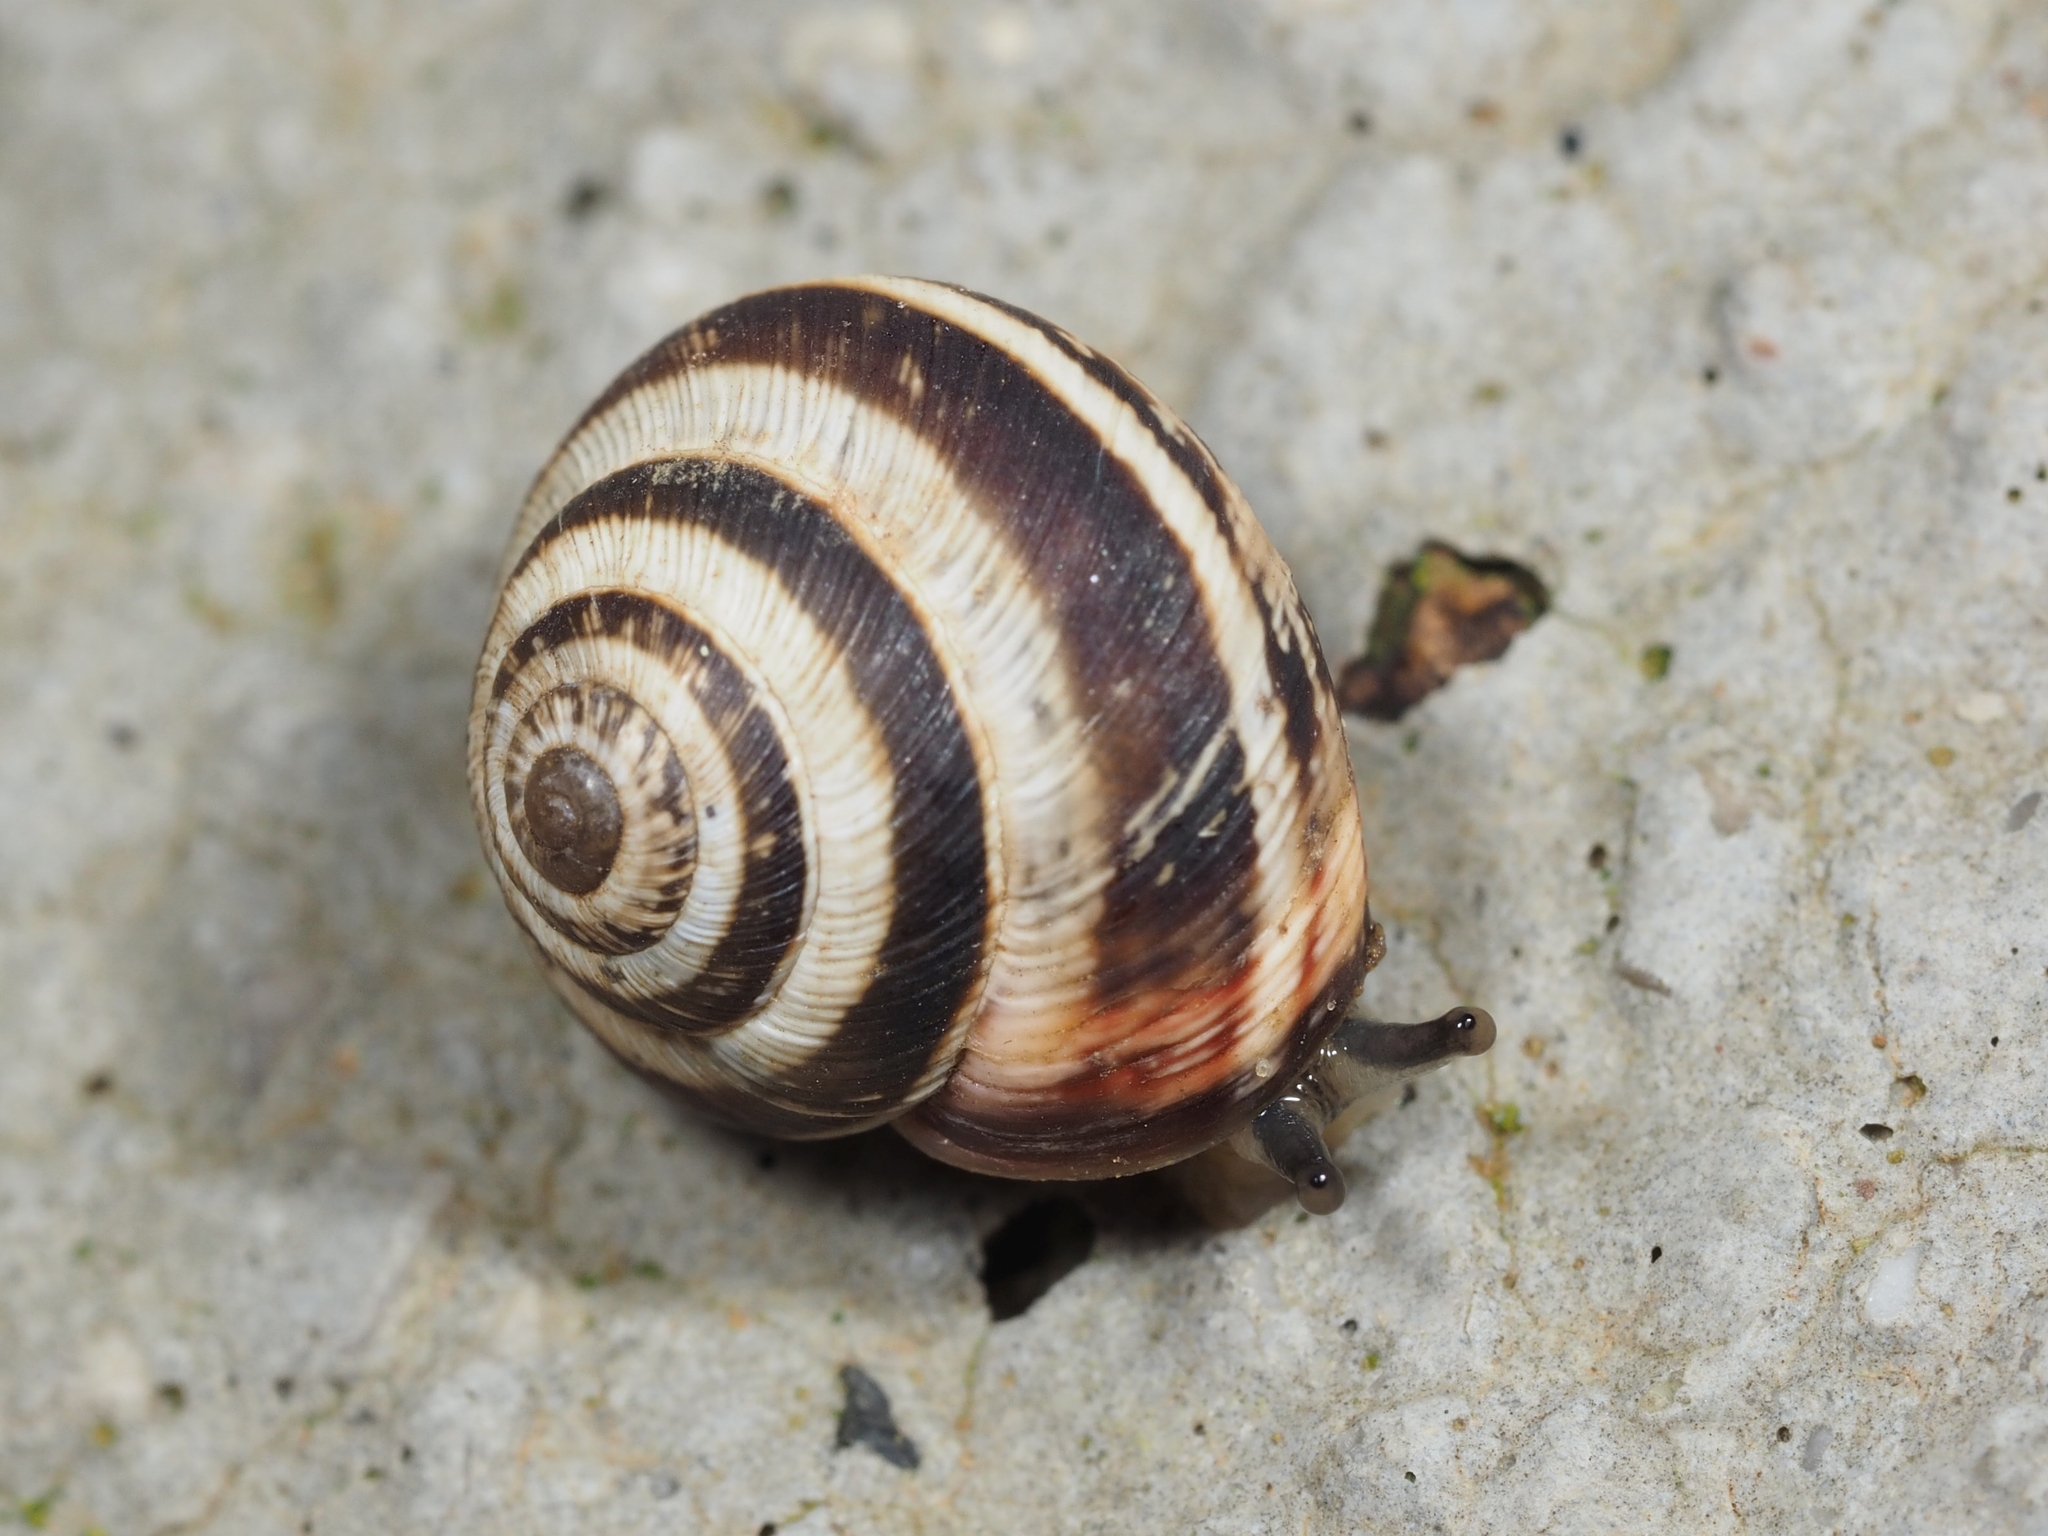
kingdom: Animalia
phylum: Mollusca
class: Gastropoda
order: Stylommatophora
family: Geomitridae
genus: Cernuella
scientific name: Cernuella virgata
